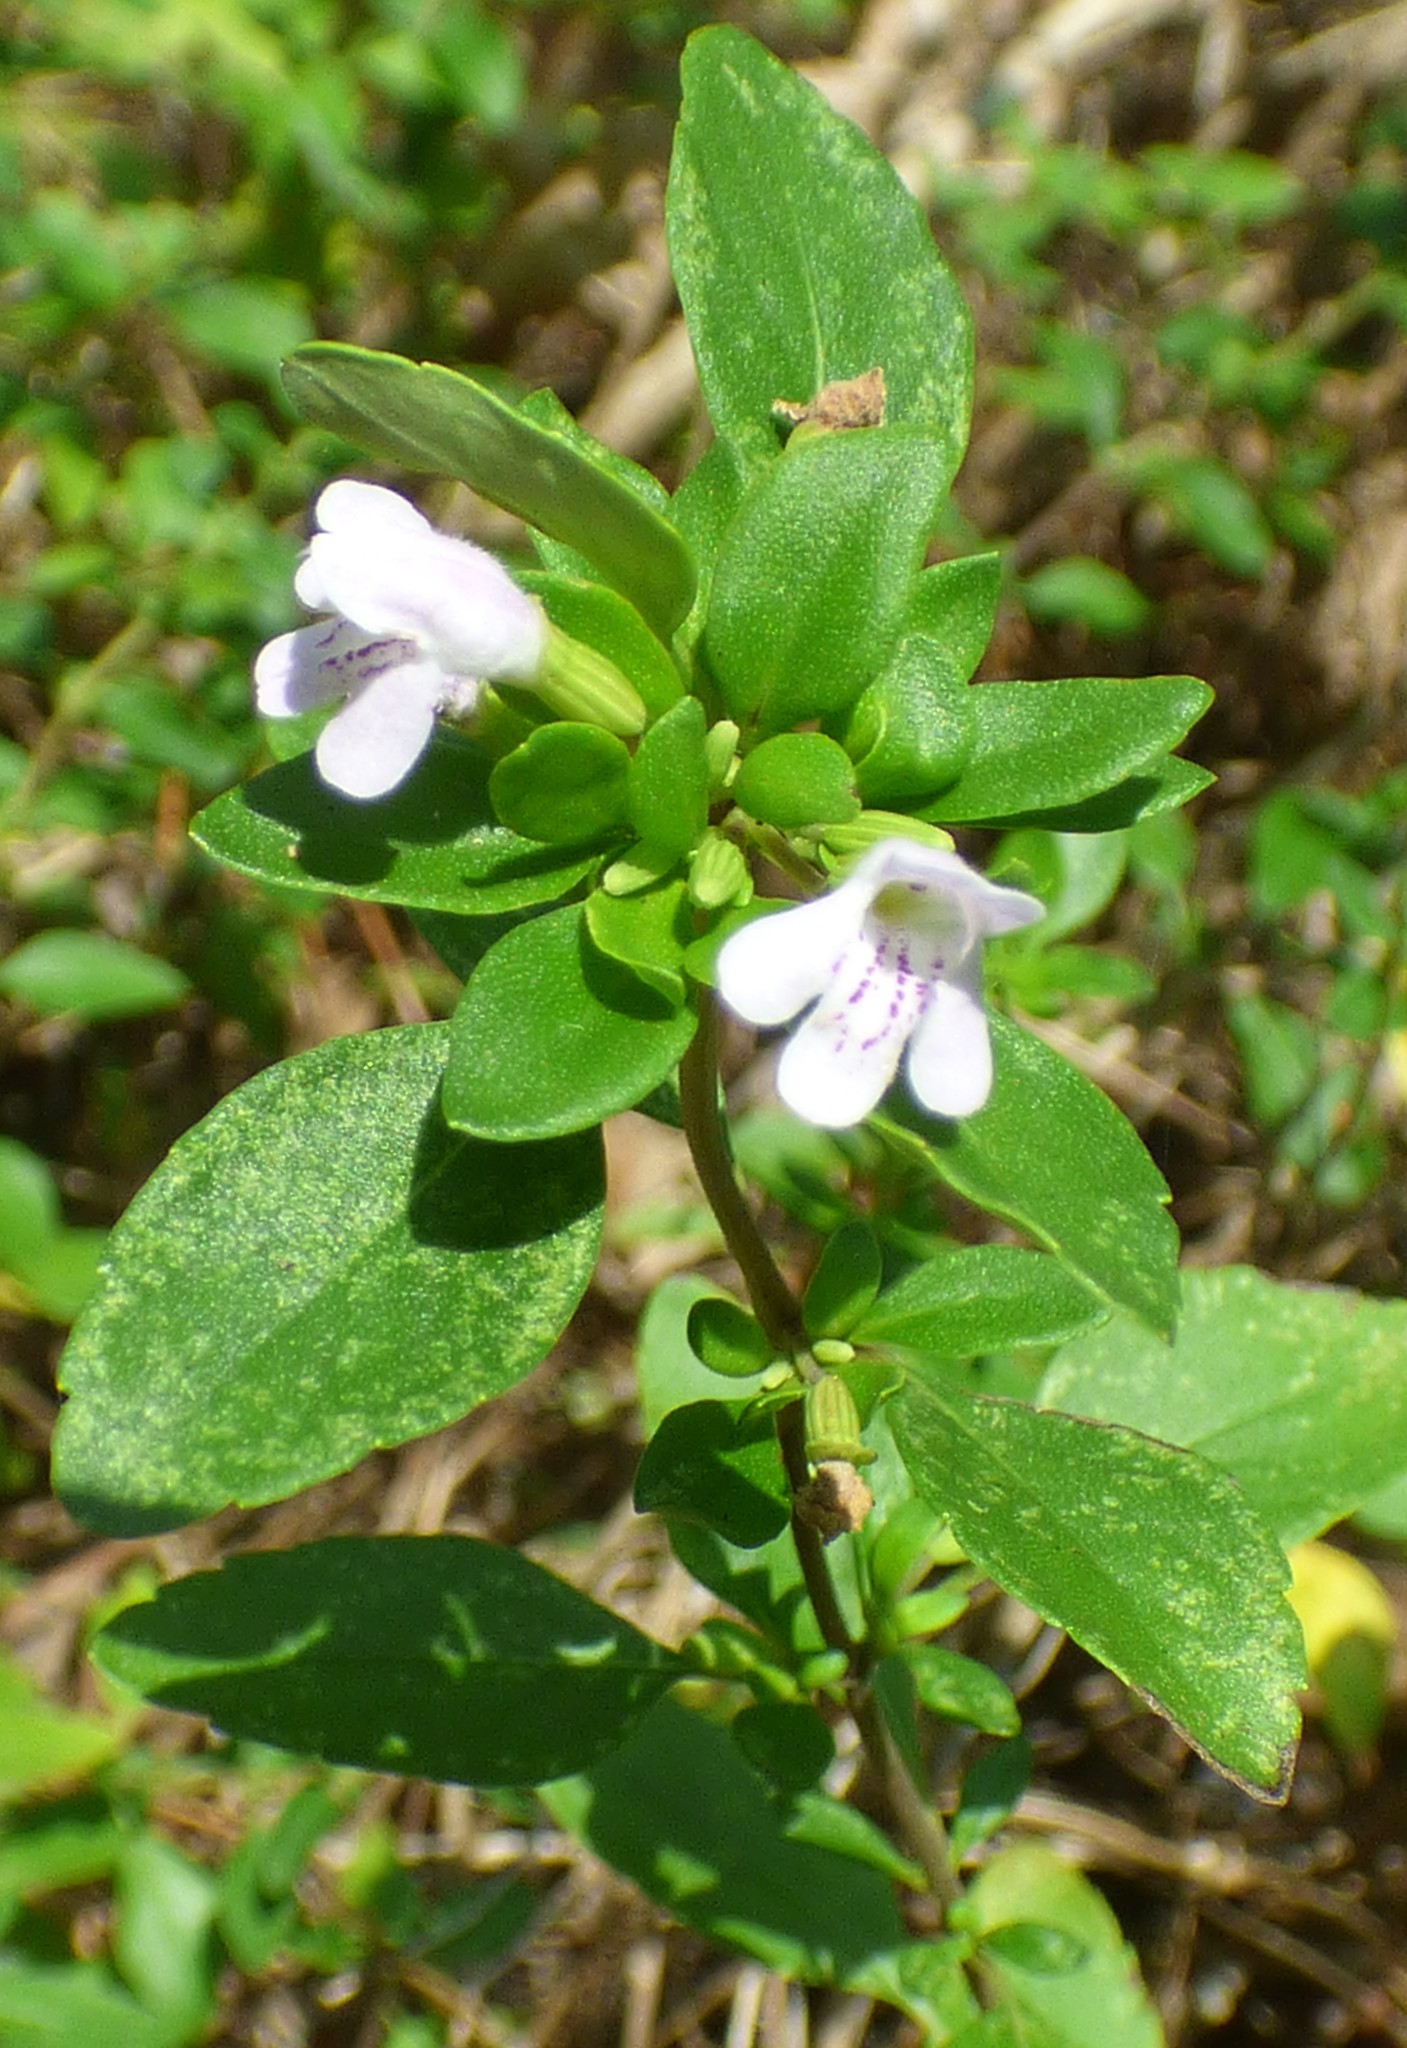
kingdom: Plantae
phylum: Tracheophyta
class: Magnoliopsida
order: Lamiales
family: Lamiaceae
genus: Clinopodium
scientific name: Clinopodium carolinianum
